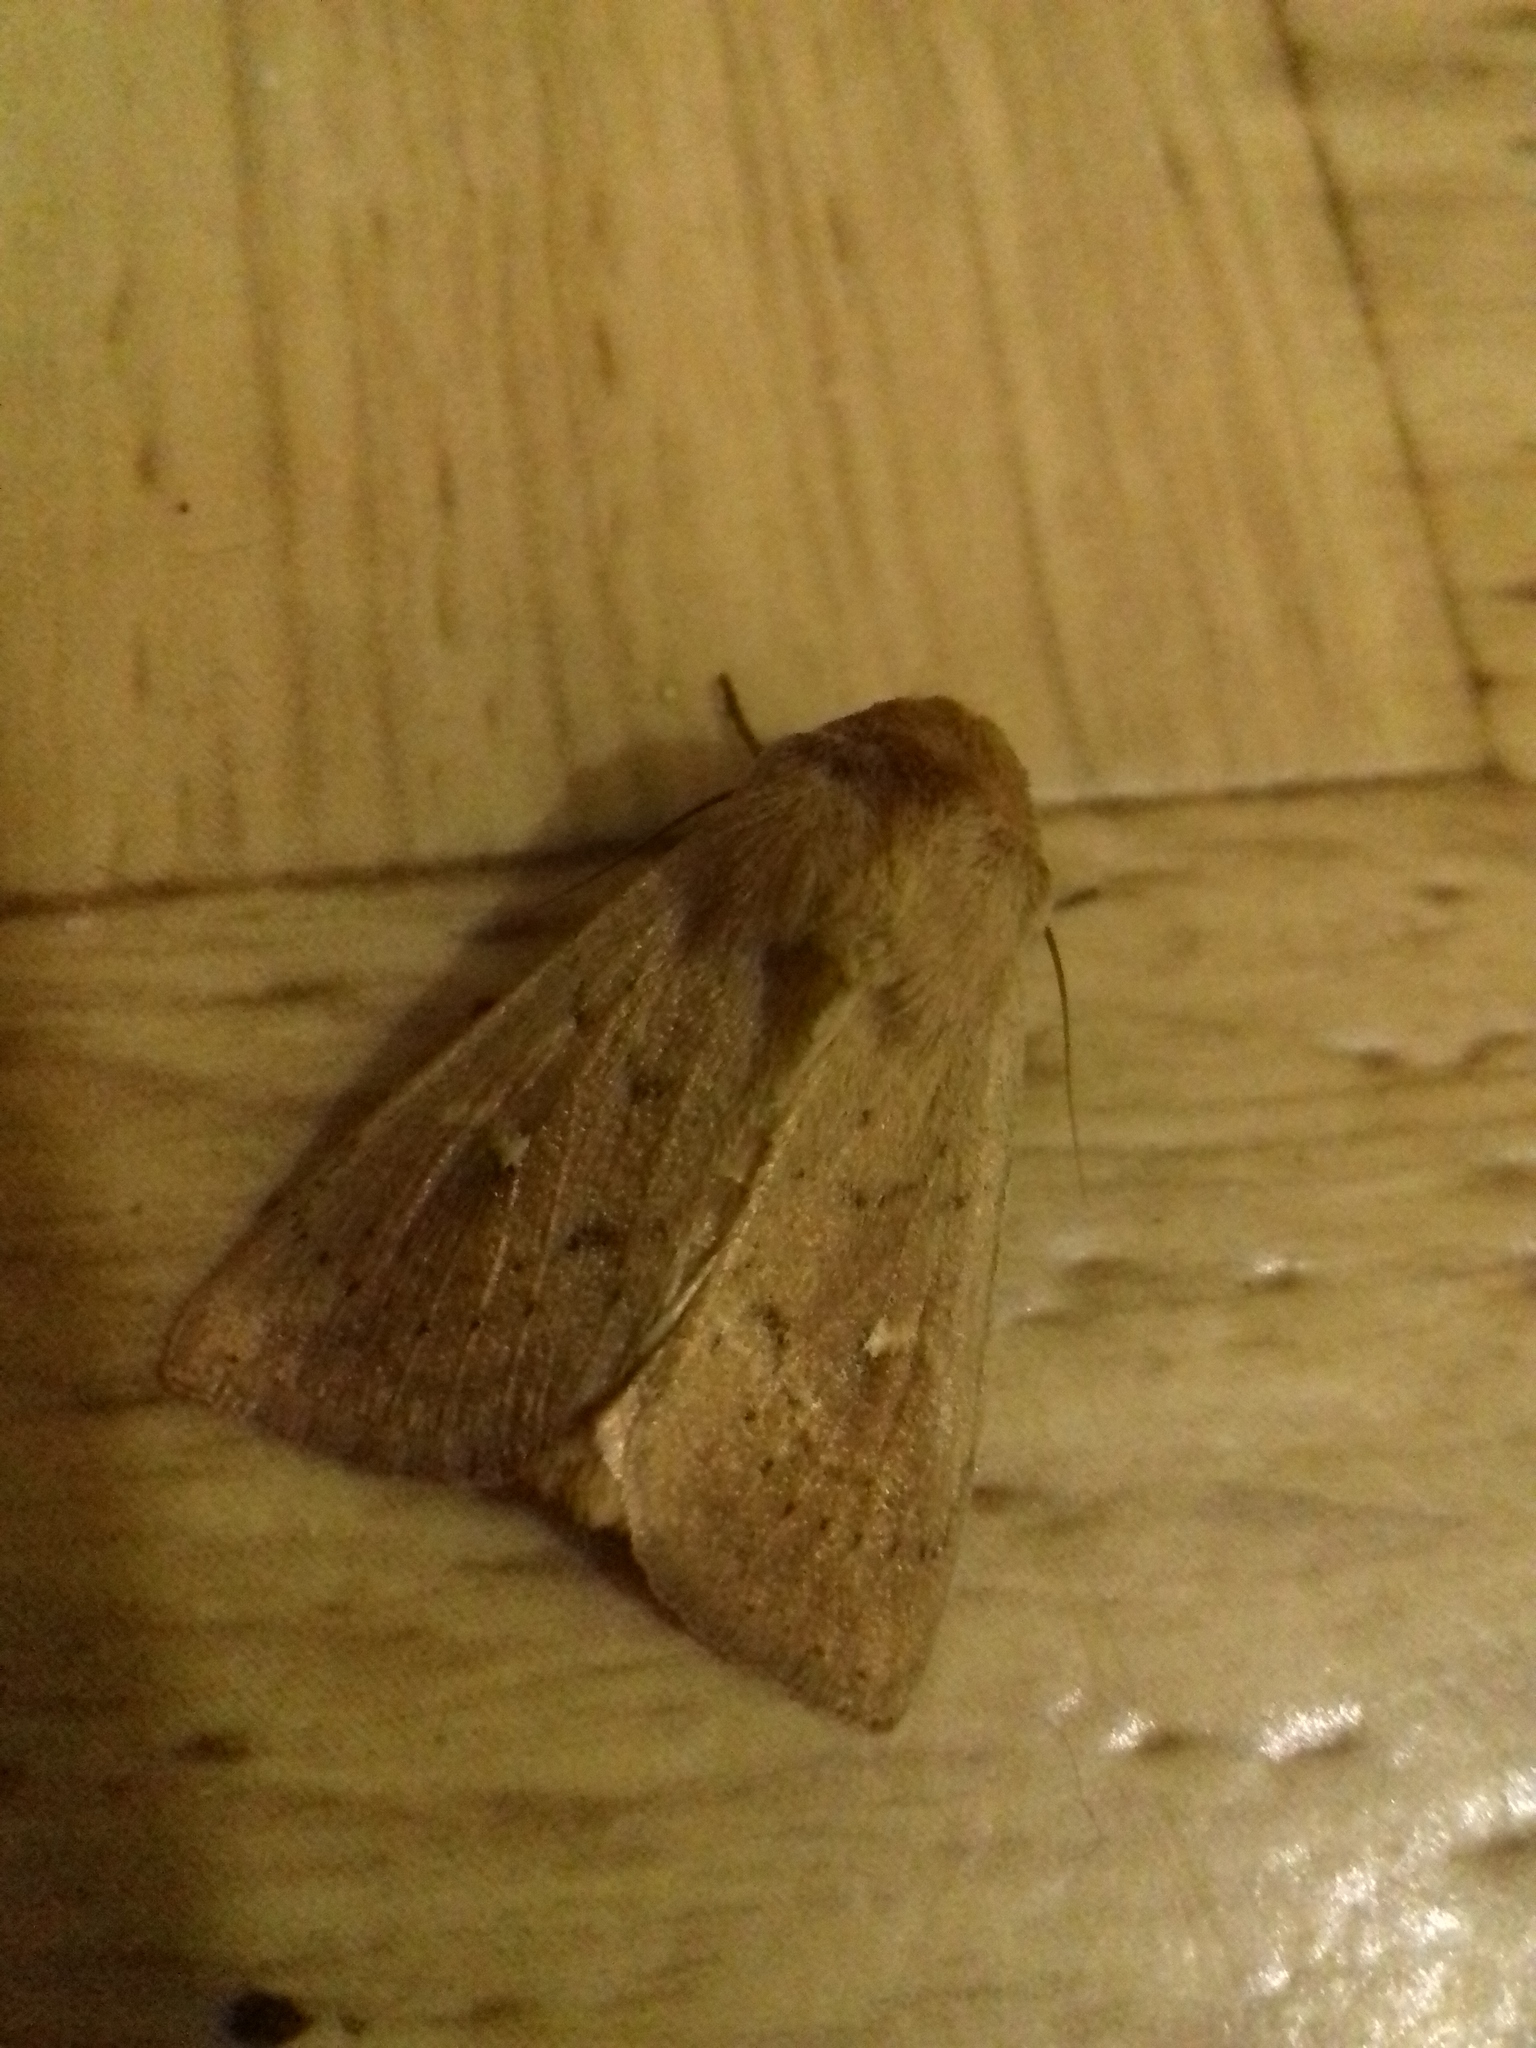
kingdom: Animalia
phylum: Arthropoda
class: Insecta
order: Lepidoptera
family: Noctuidae
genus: Mythimna
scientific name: Mythimna ferrago
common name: Clay
